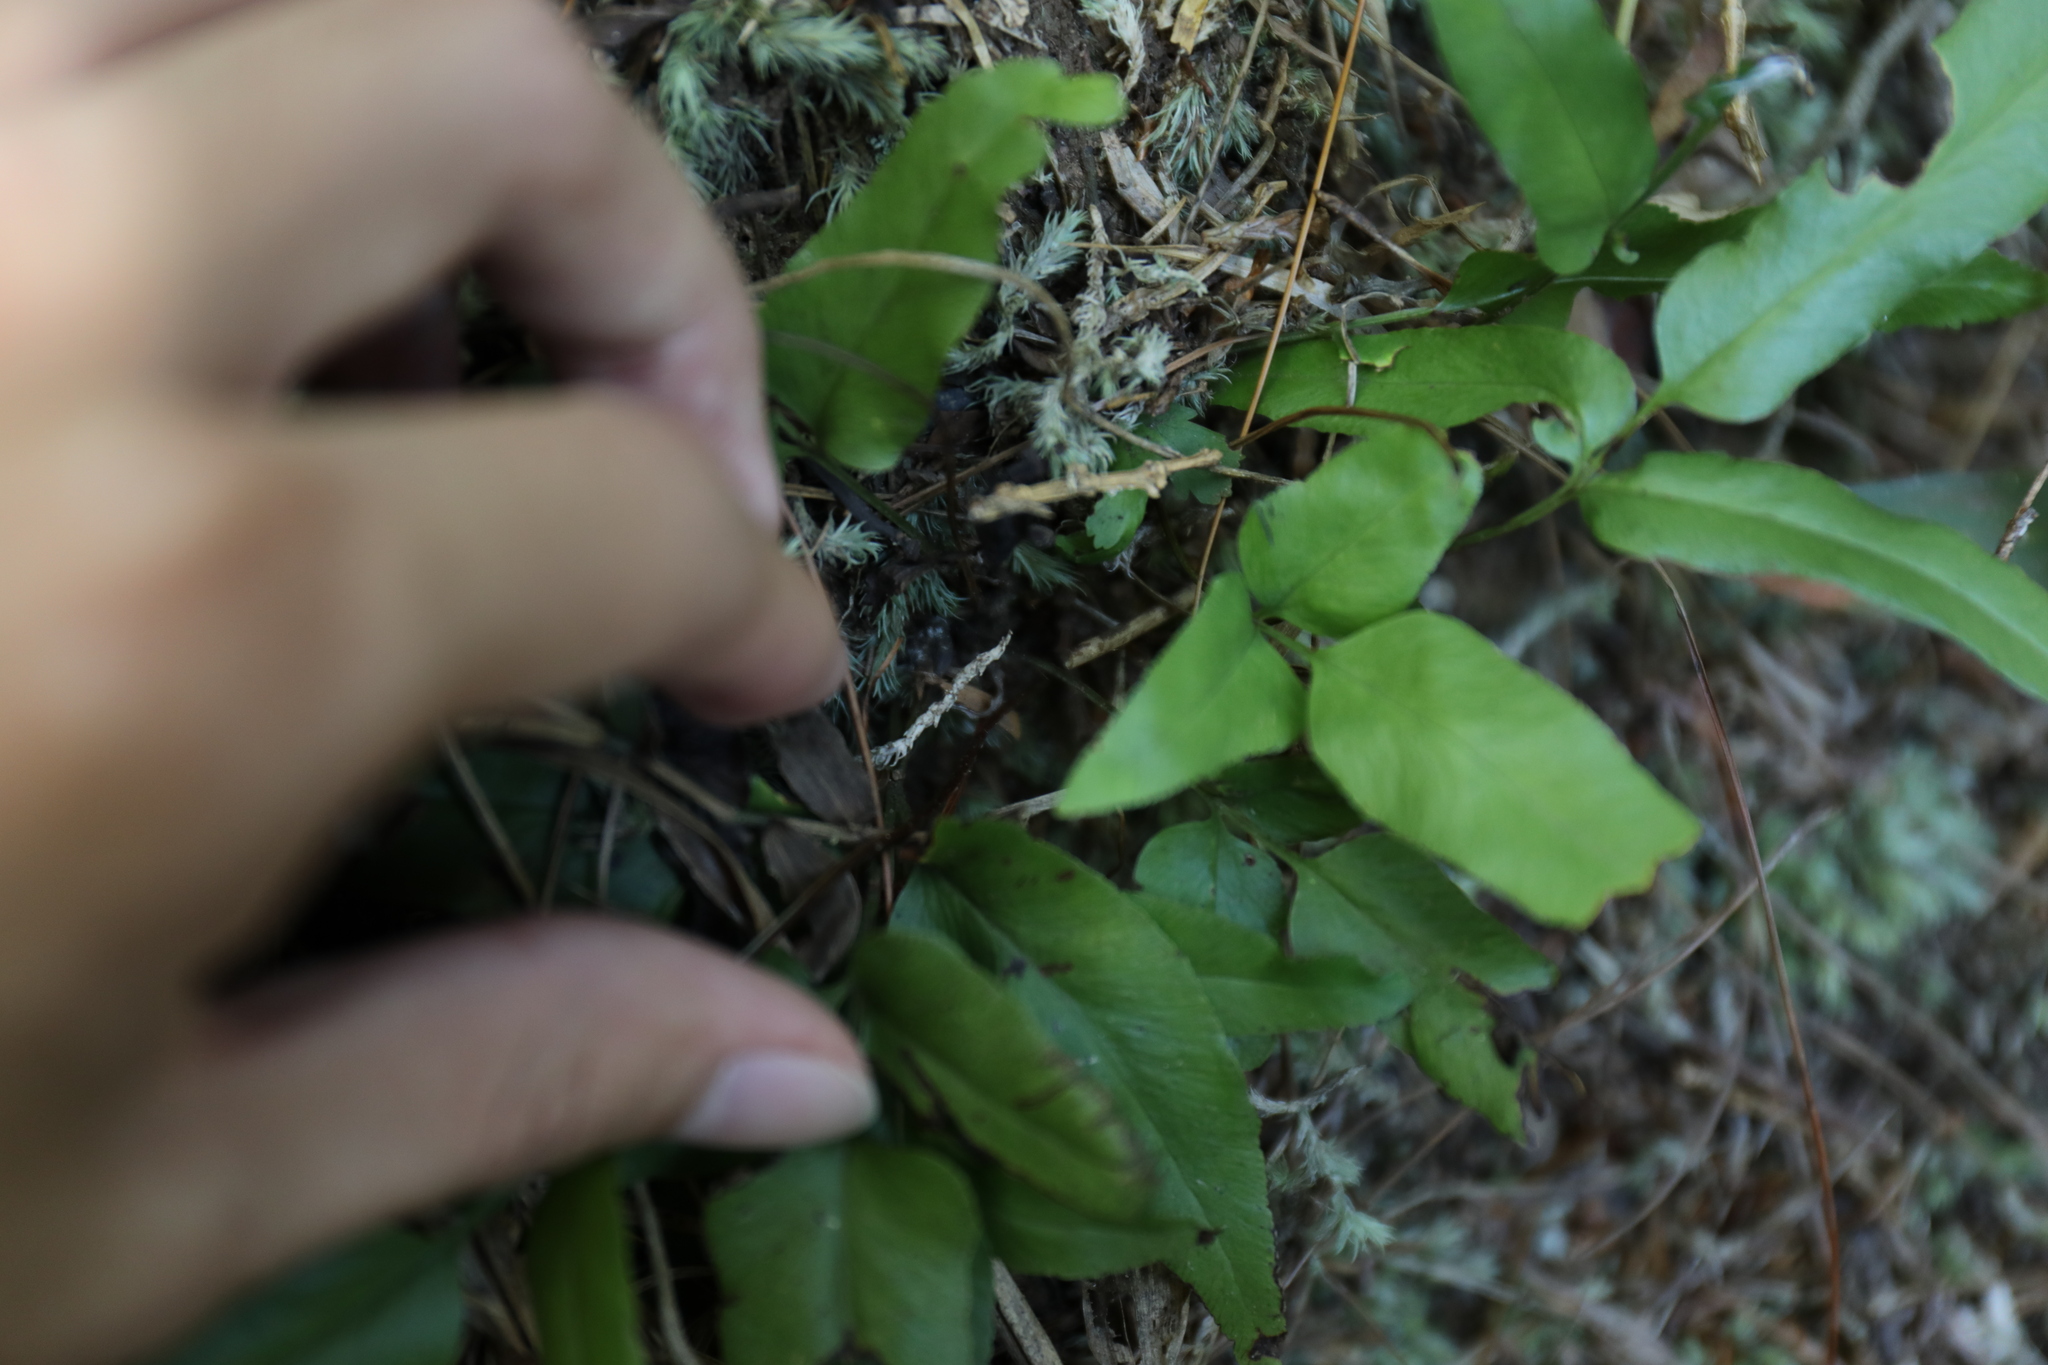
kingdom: Plantae
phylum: Tracheophyta
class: Polypodiopsida
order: Polypodiales
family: Lindsaeaceae
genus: Lindsaea
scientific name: Lindsaea ensifolia
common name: Graceful necklace fern
